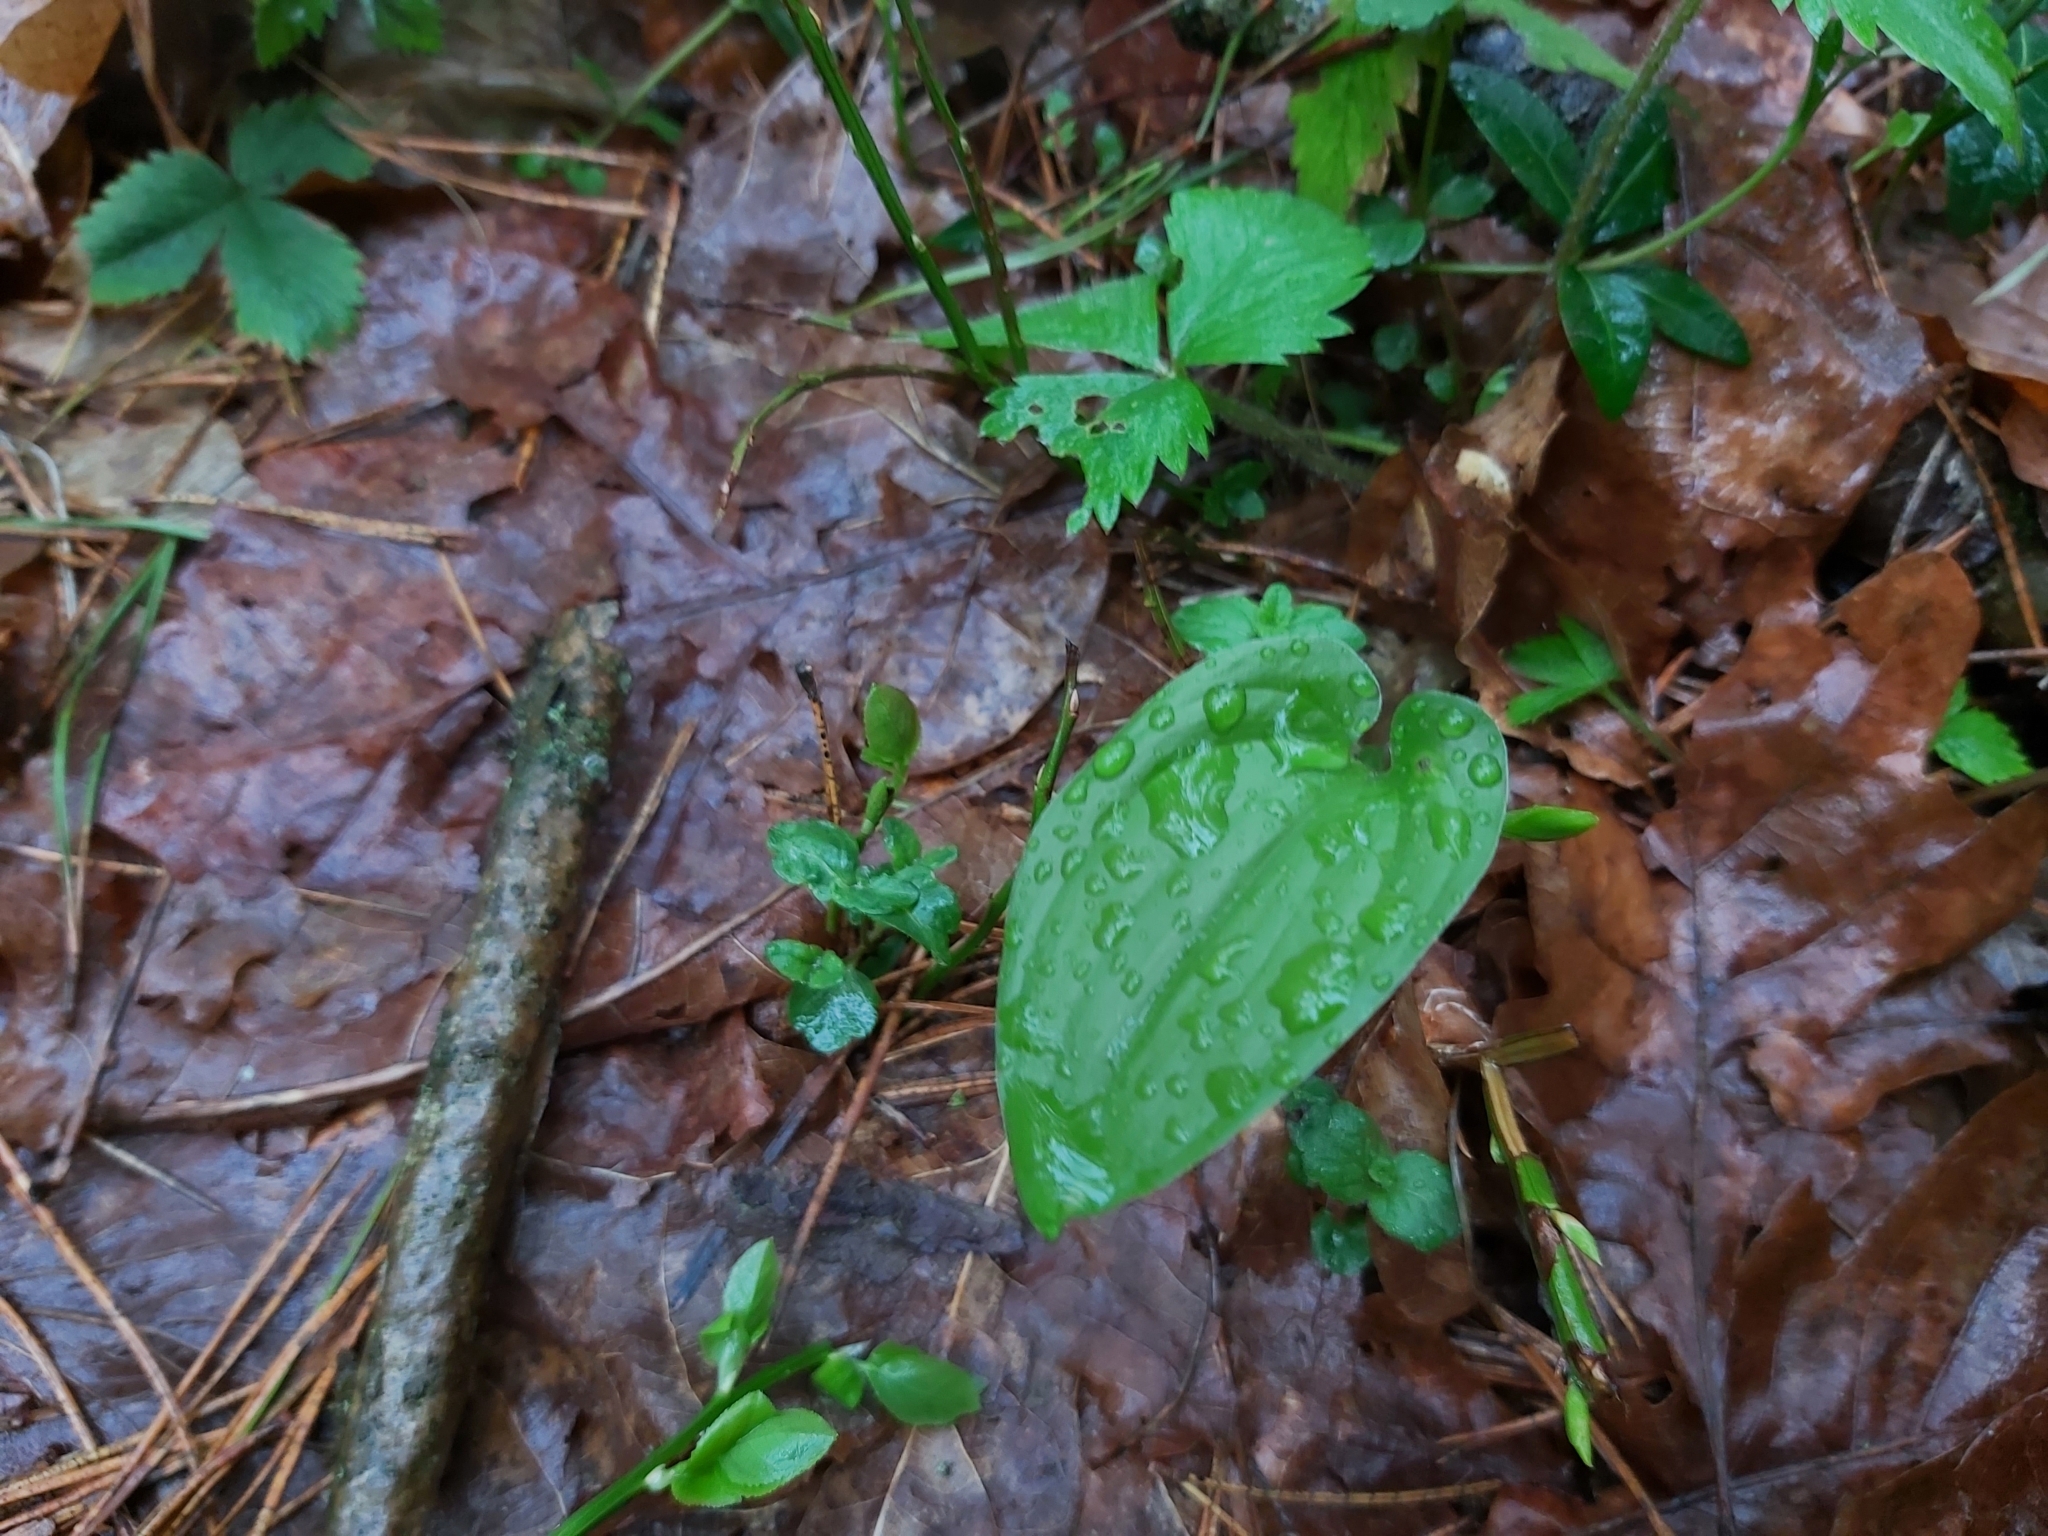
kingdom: Plantae
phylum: Tracheophyta
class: Liliopsida
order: Asparagales
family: Asparagaceae
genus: Maianthemum
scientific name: Maianthemum bifolium
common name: May lily
